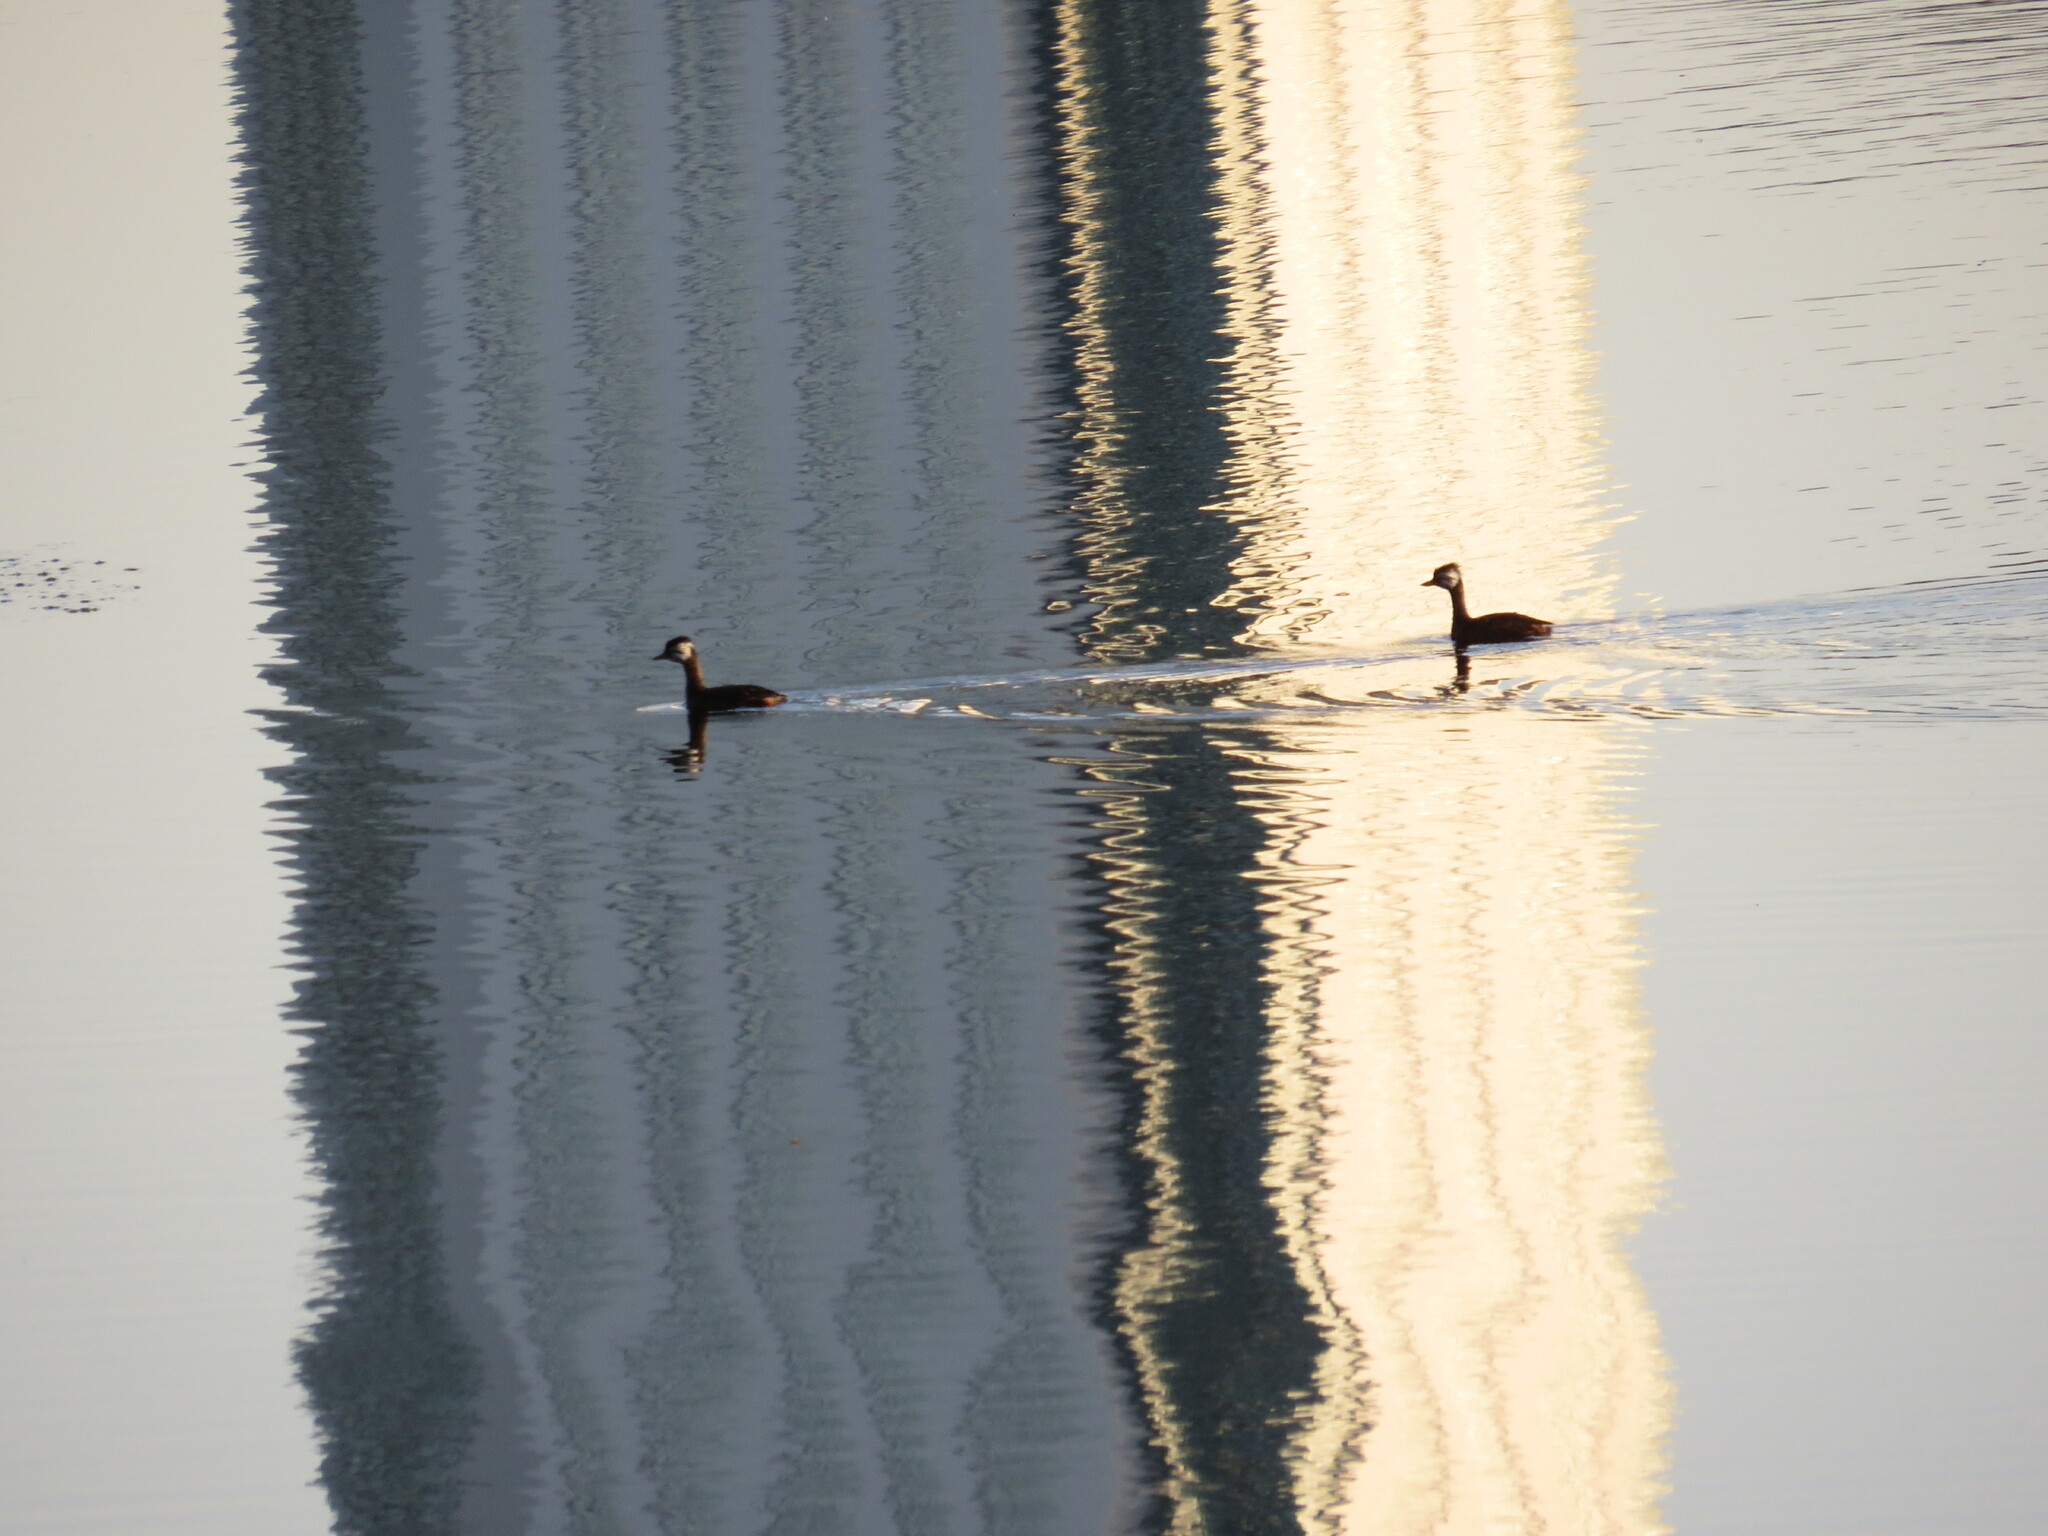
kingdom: Animalia
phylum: Chordata
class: Aves
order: Podicipediformes
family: Podicipedidae
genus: Rollandia
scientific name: Rollandia rolland
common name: White-tufted grebe
